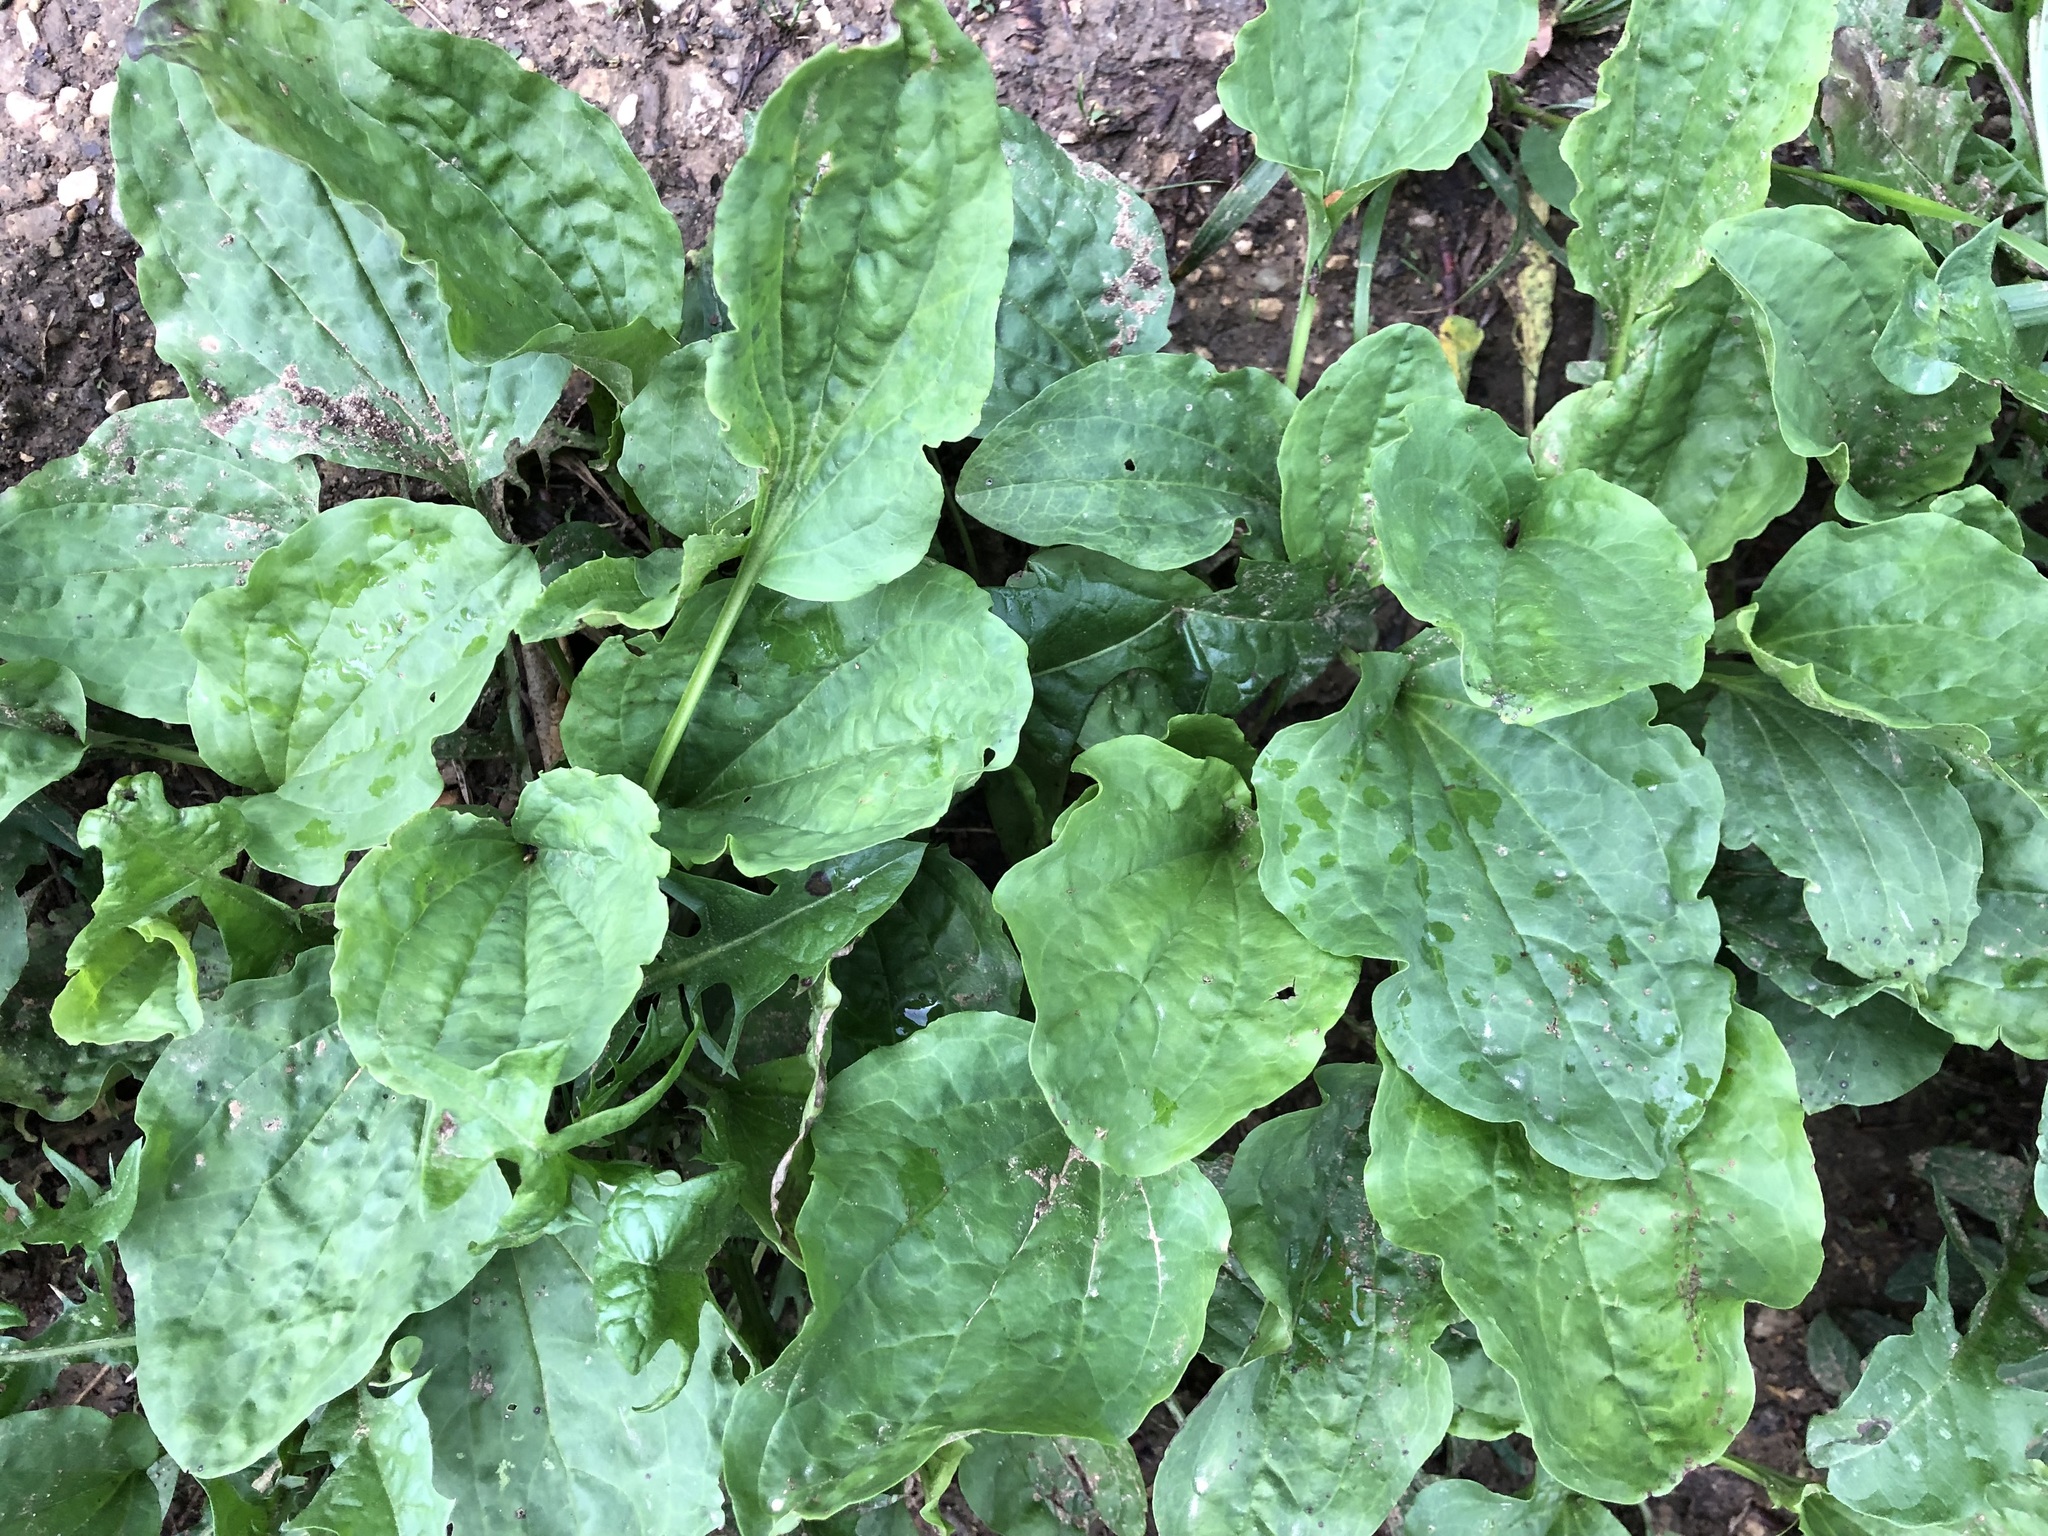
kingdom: Plantae
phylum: Tracheophyta
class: Magnoliopsida
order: Lamiales
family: Plantaginaceae
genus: Plantago
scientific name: Plantago major
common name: Common plantain
